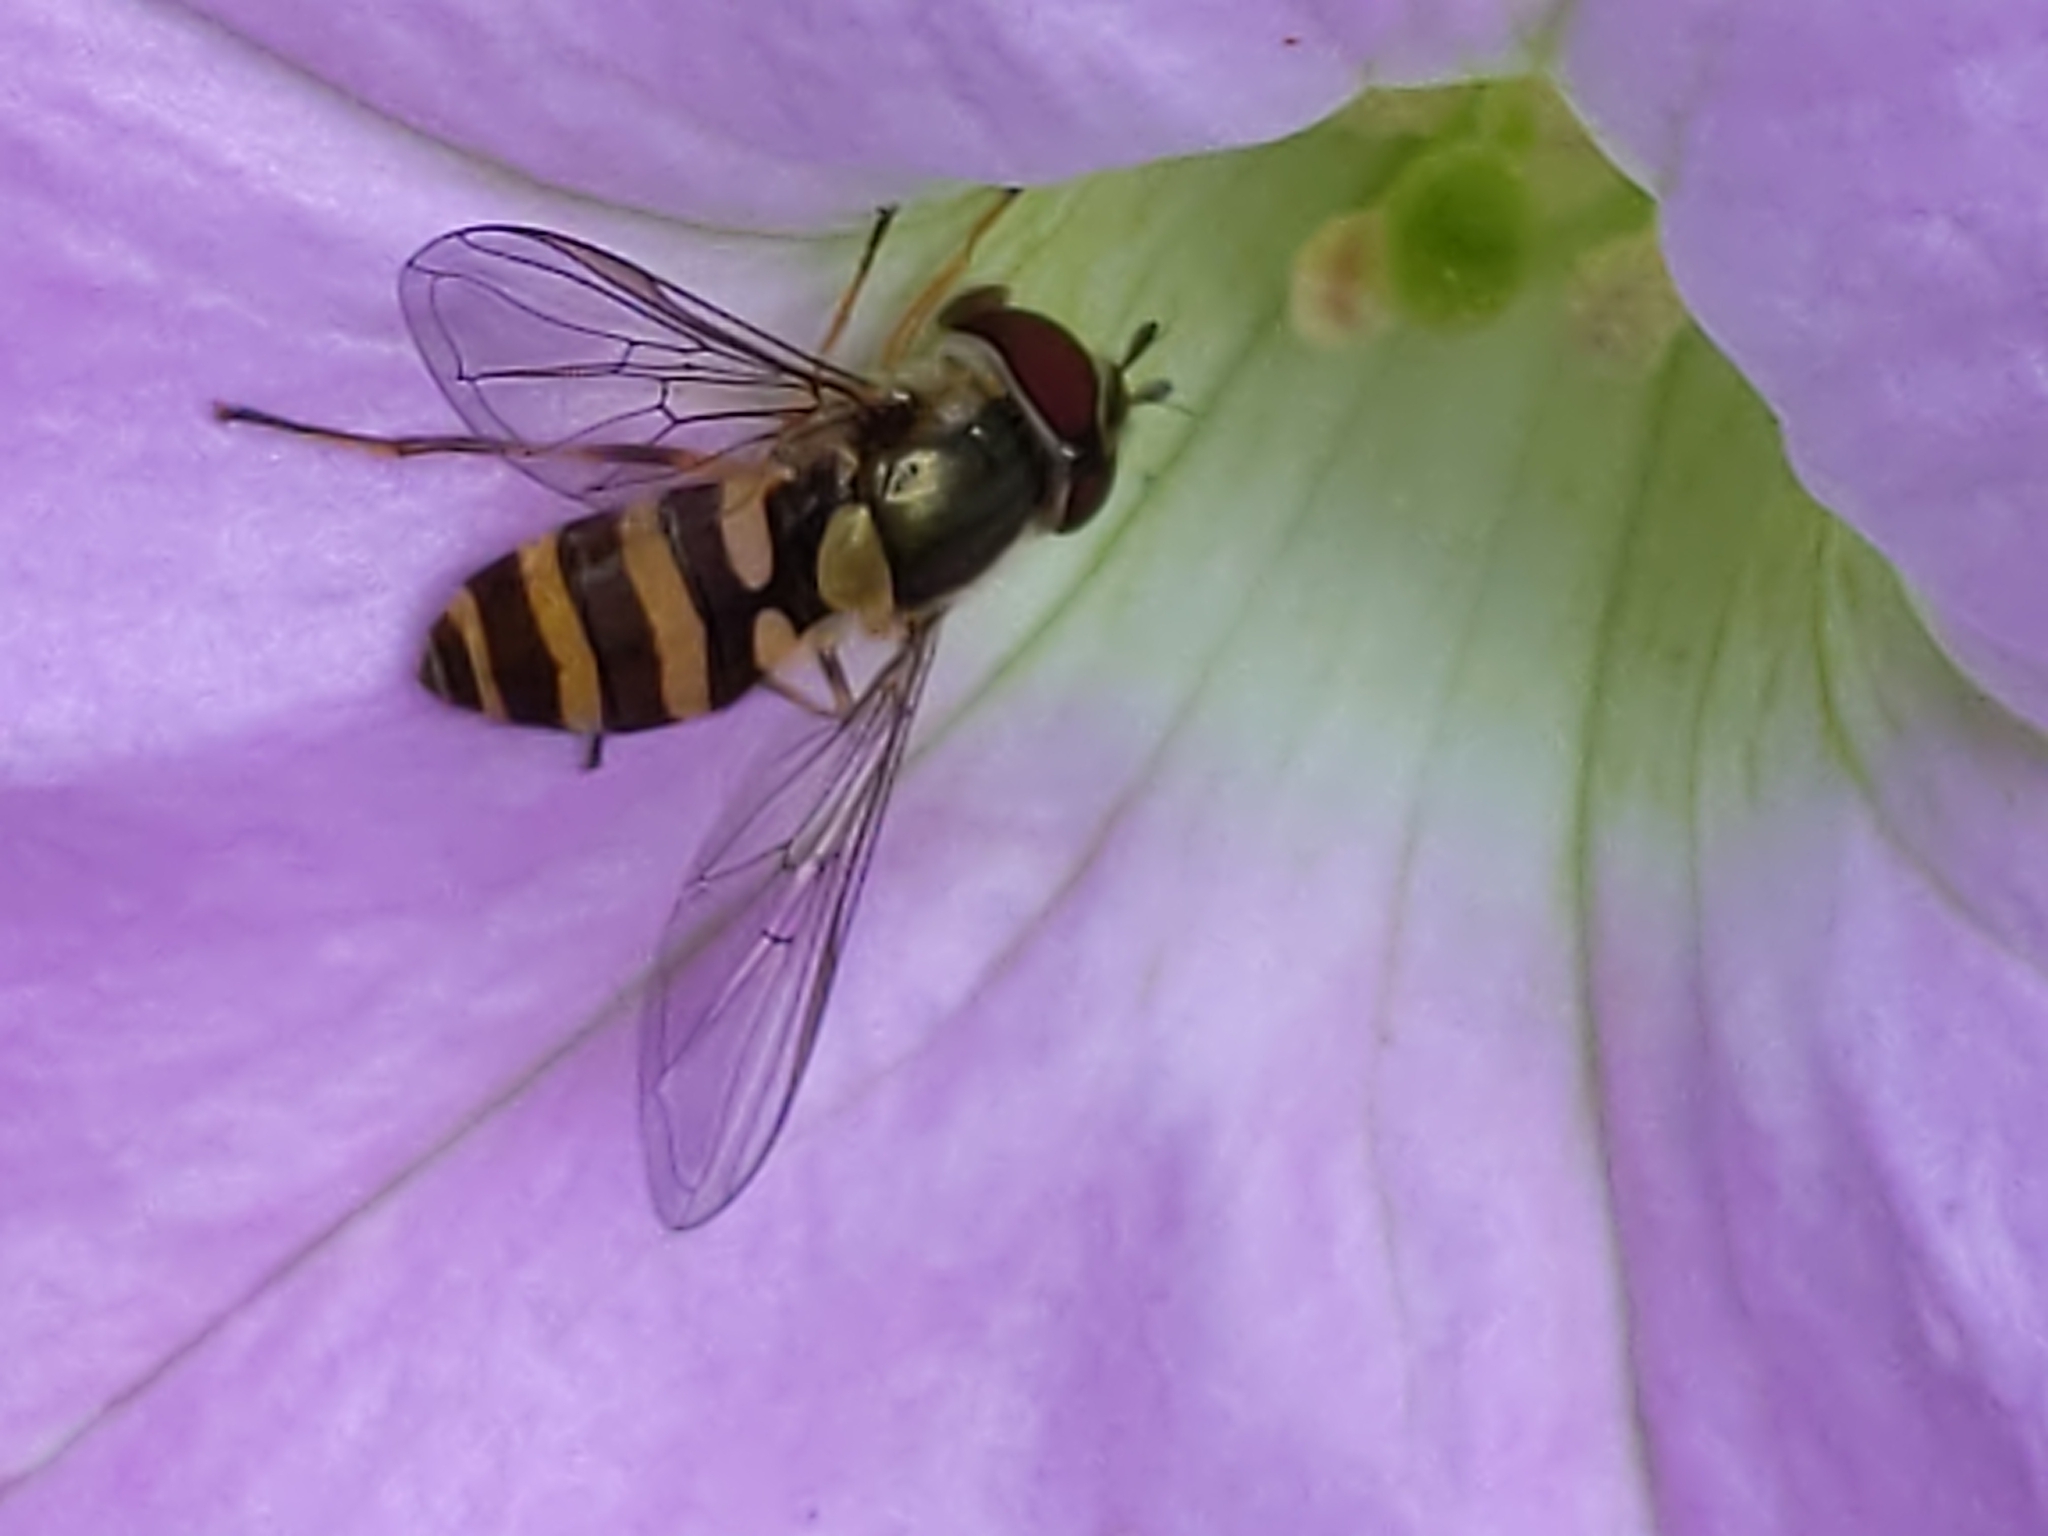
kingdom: Animalia
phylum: Arthropoda
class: Insecta
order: Diptera
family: Syrphidae
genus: Parasyrphus
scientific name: Parasyrphus
